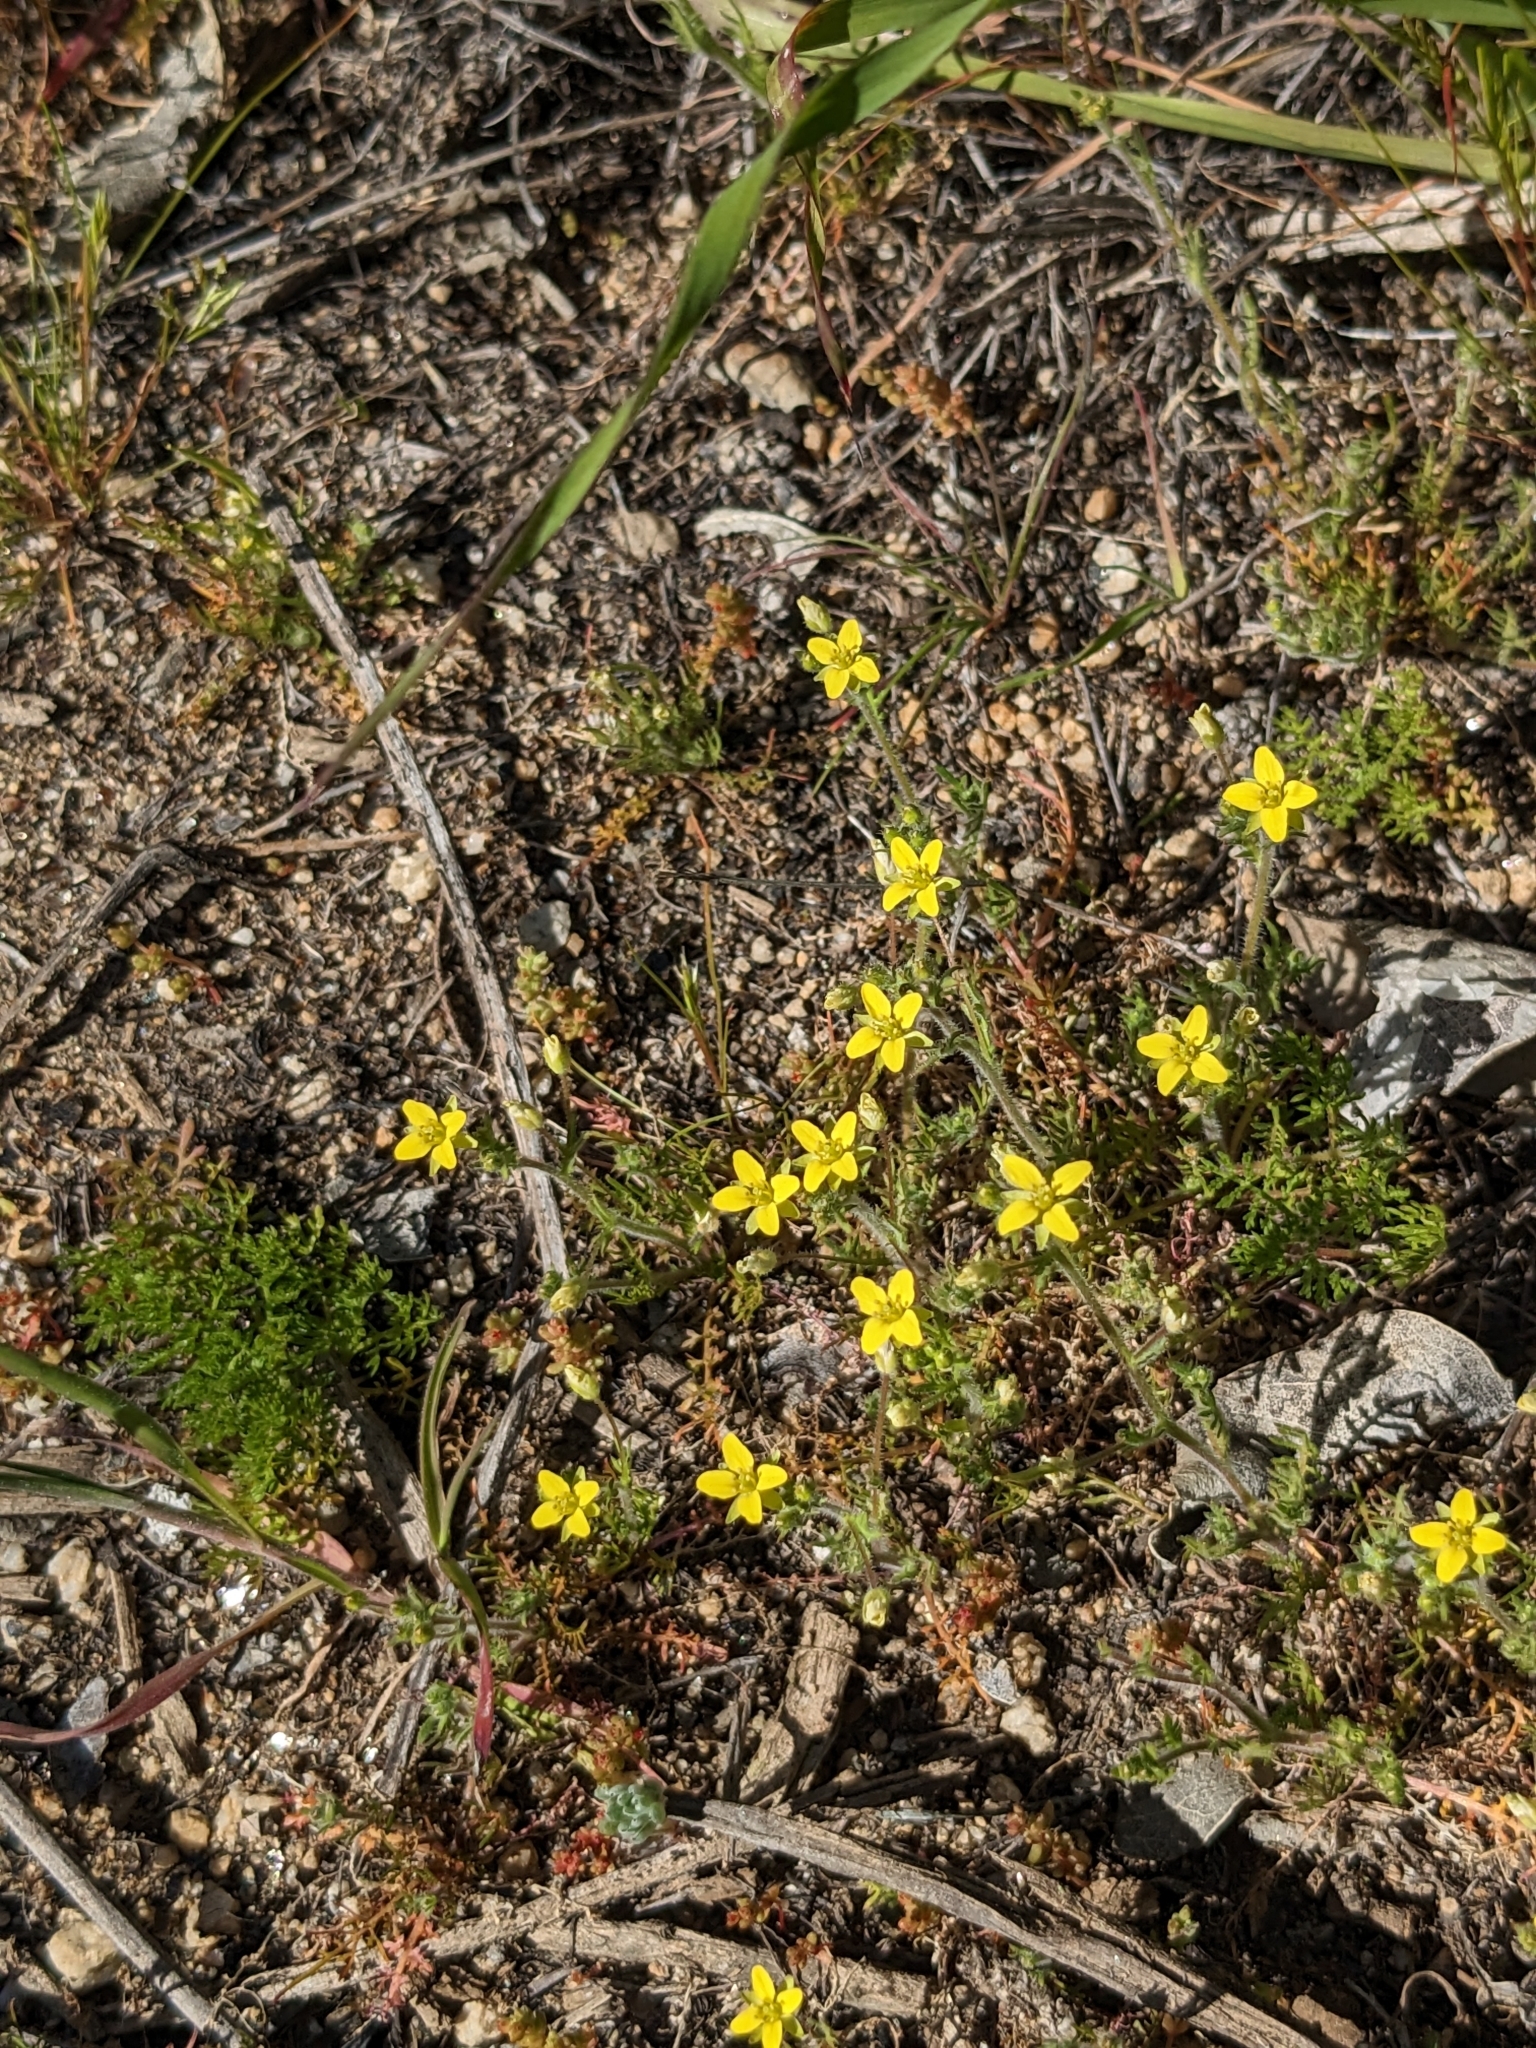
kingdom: Plantae
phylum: Tracheophyta
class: Magnoliopsida
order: Brassicales
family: Brassicaceae
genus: Tropidocarpum
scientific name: Tropidocarpum gracile
